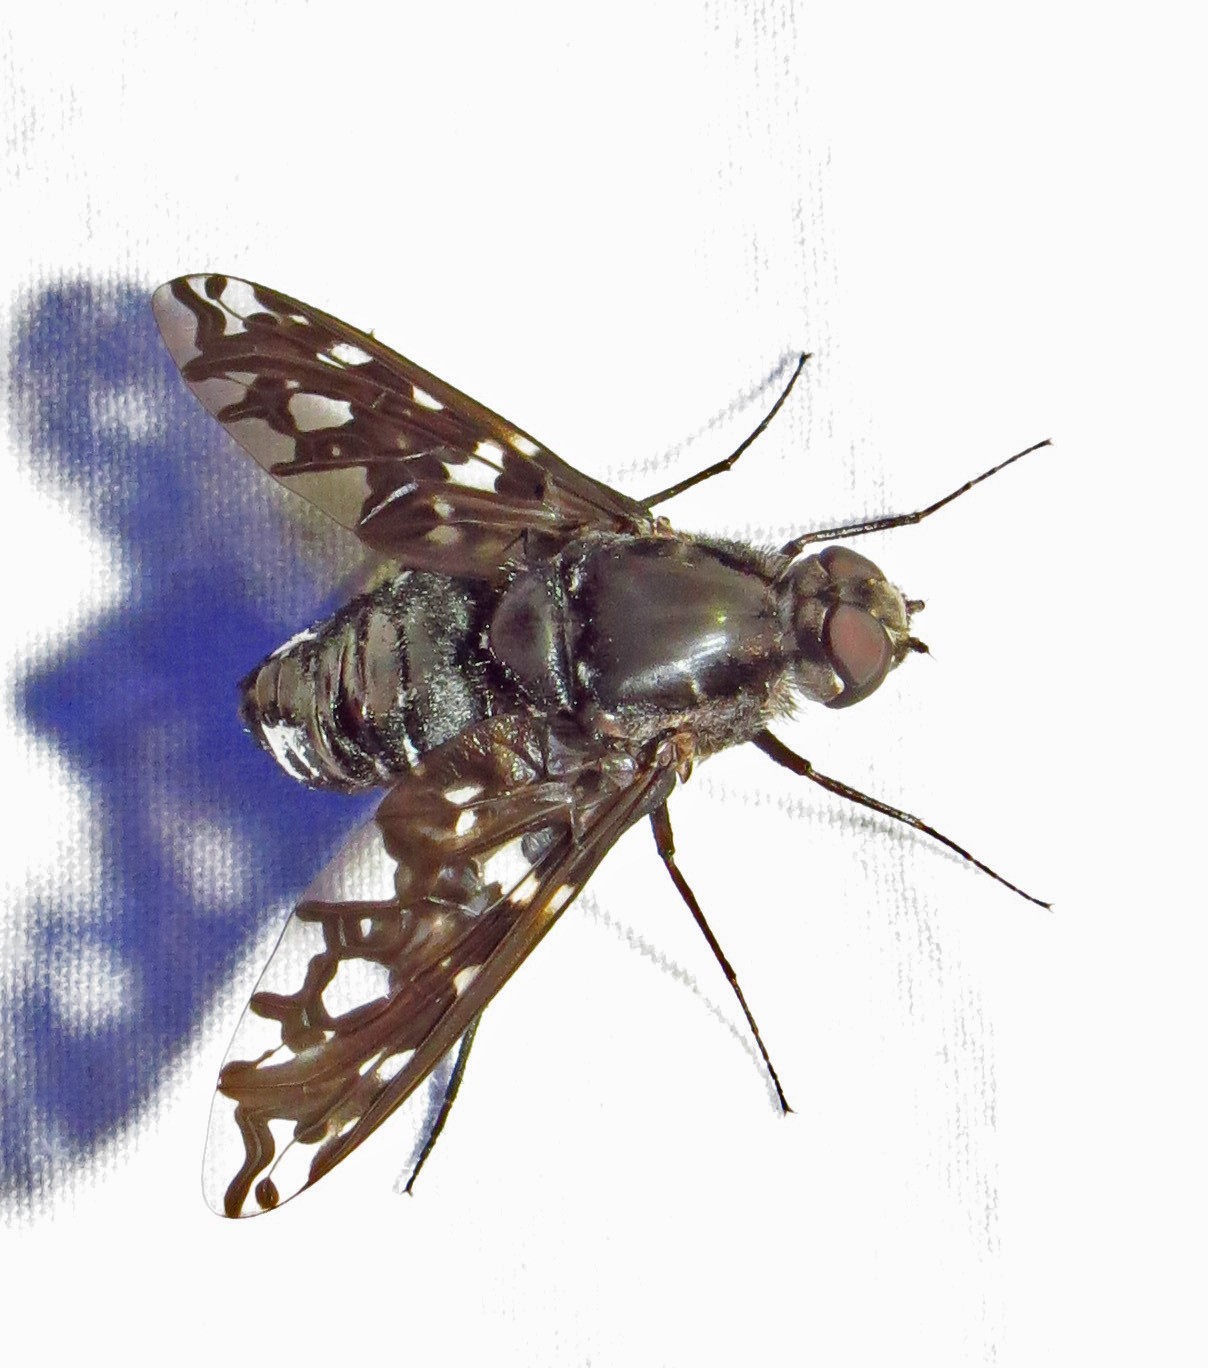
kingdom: Animalia
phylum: Arthropoda
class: Insecta
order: Diptera
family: Bombyliidae
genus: Xenox
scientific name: Xenox tigrinus
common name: Tiger bee fly
